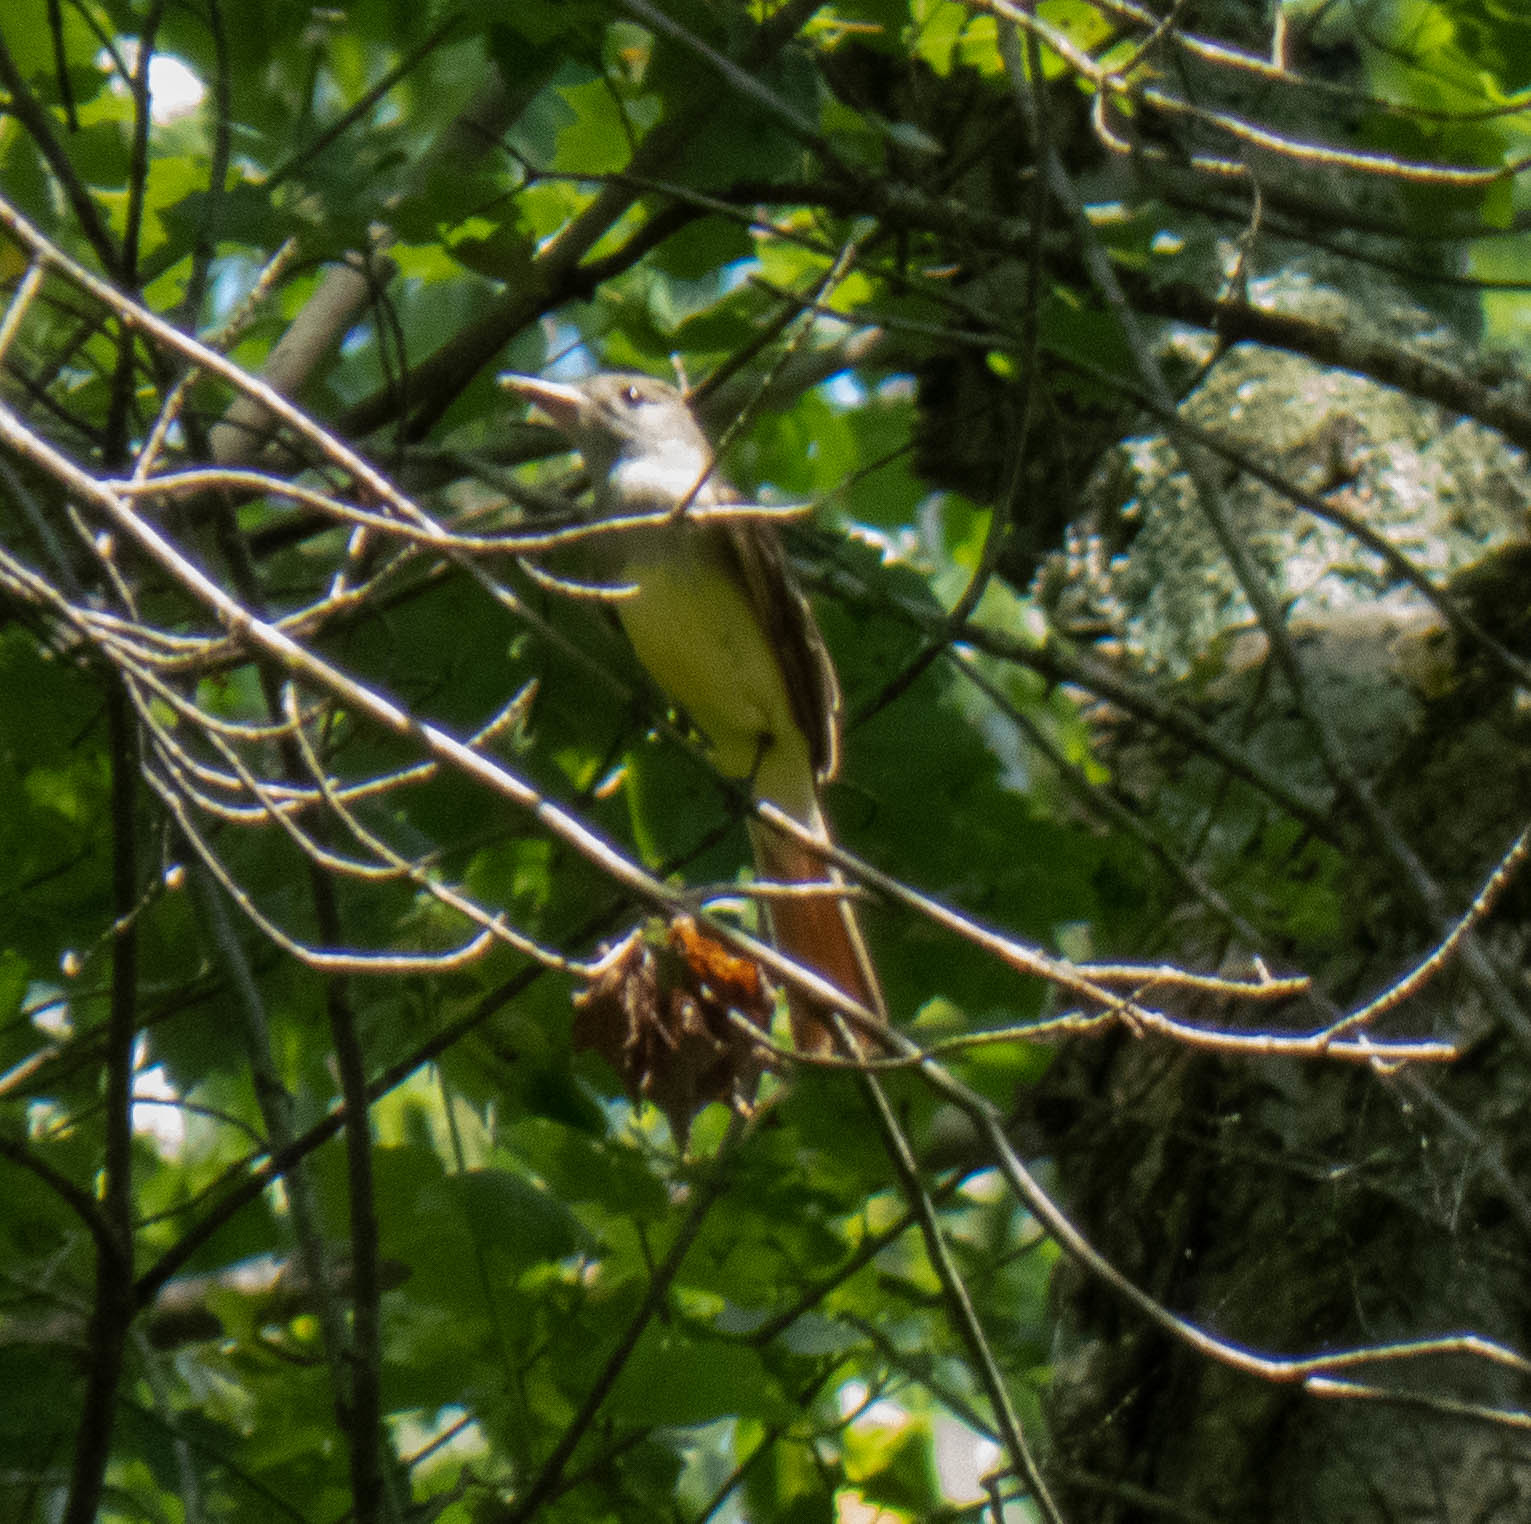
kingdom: Animalia
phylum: Chordata
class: Aves
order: Passeriformes
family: Tyrannidae
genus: Myiarchus
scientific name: Myiarchus crinitus
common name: Great crested flycatcher
